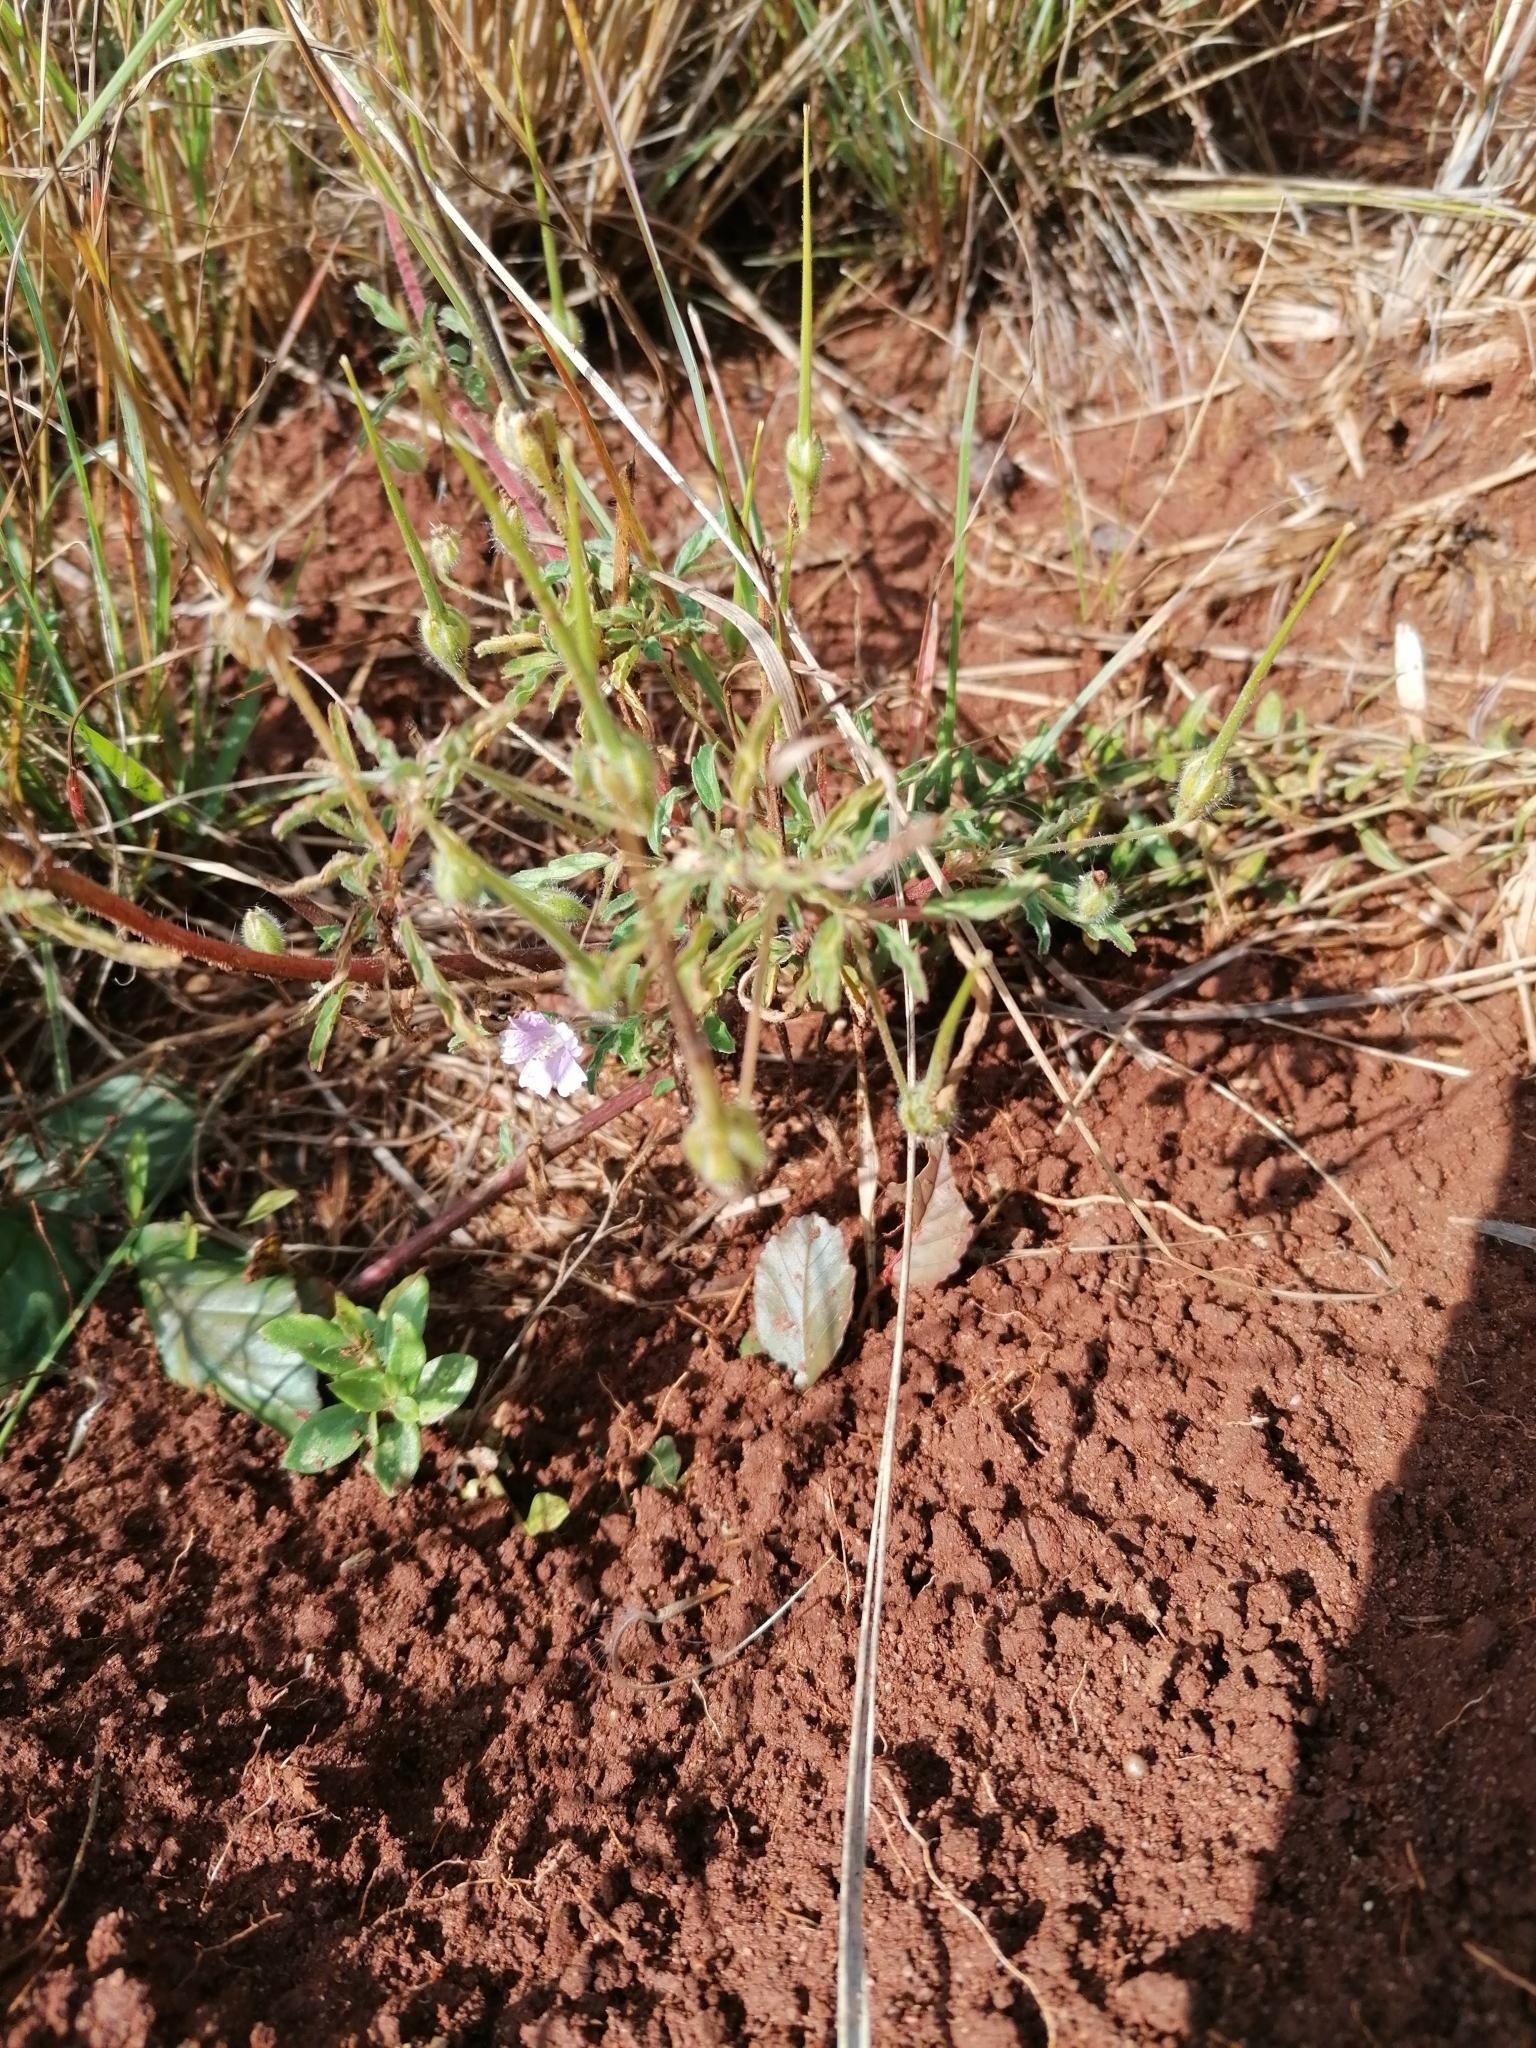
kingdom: Plantae
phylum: Tracheophyta
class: Magnoliopsida
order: Geraniales
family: Geraniaceae
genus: Monsonia
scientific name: Monsonia angustifolia
